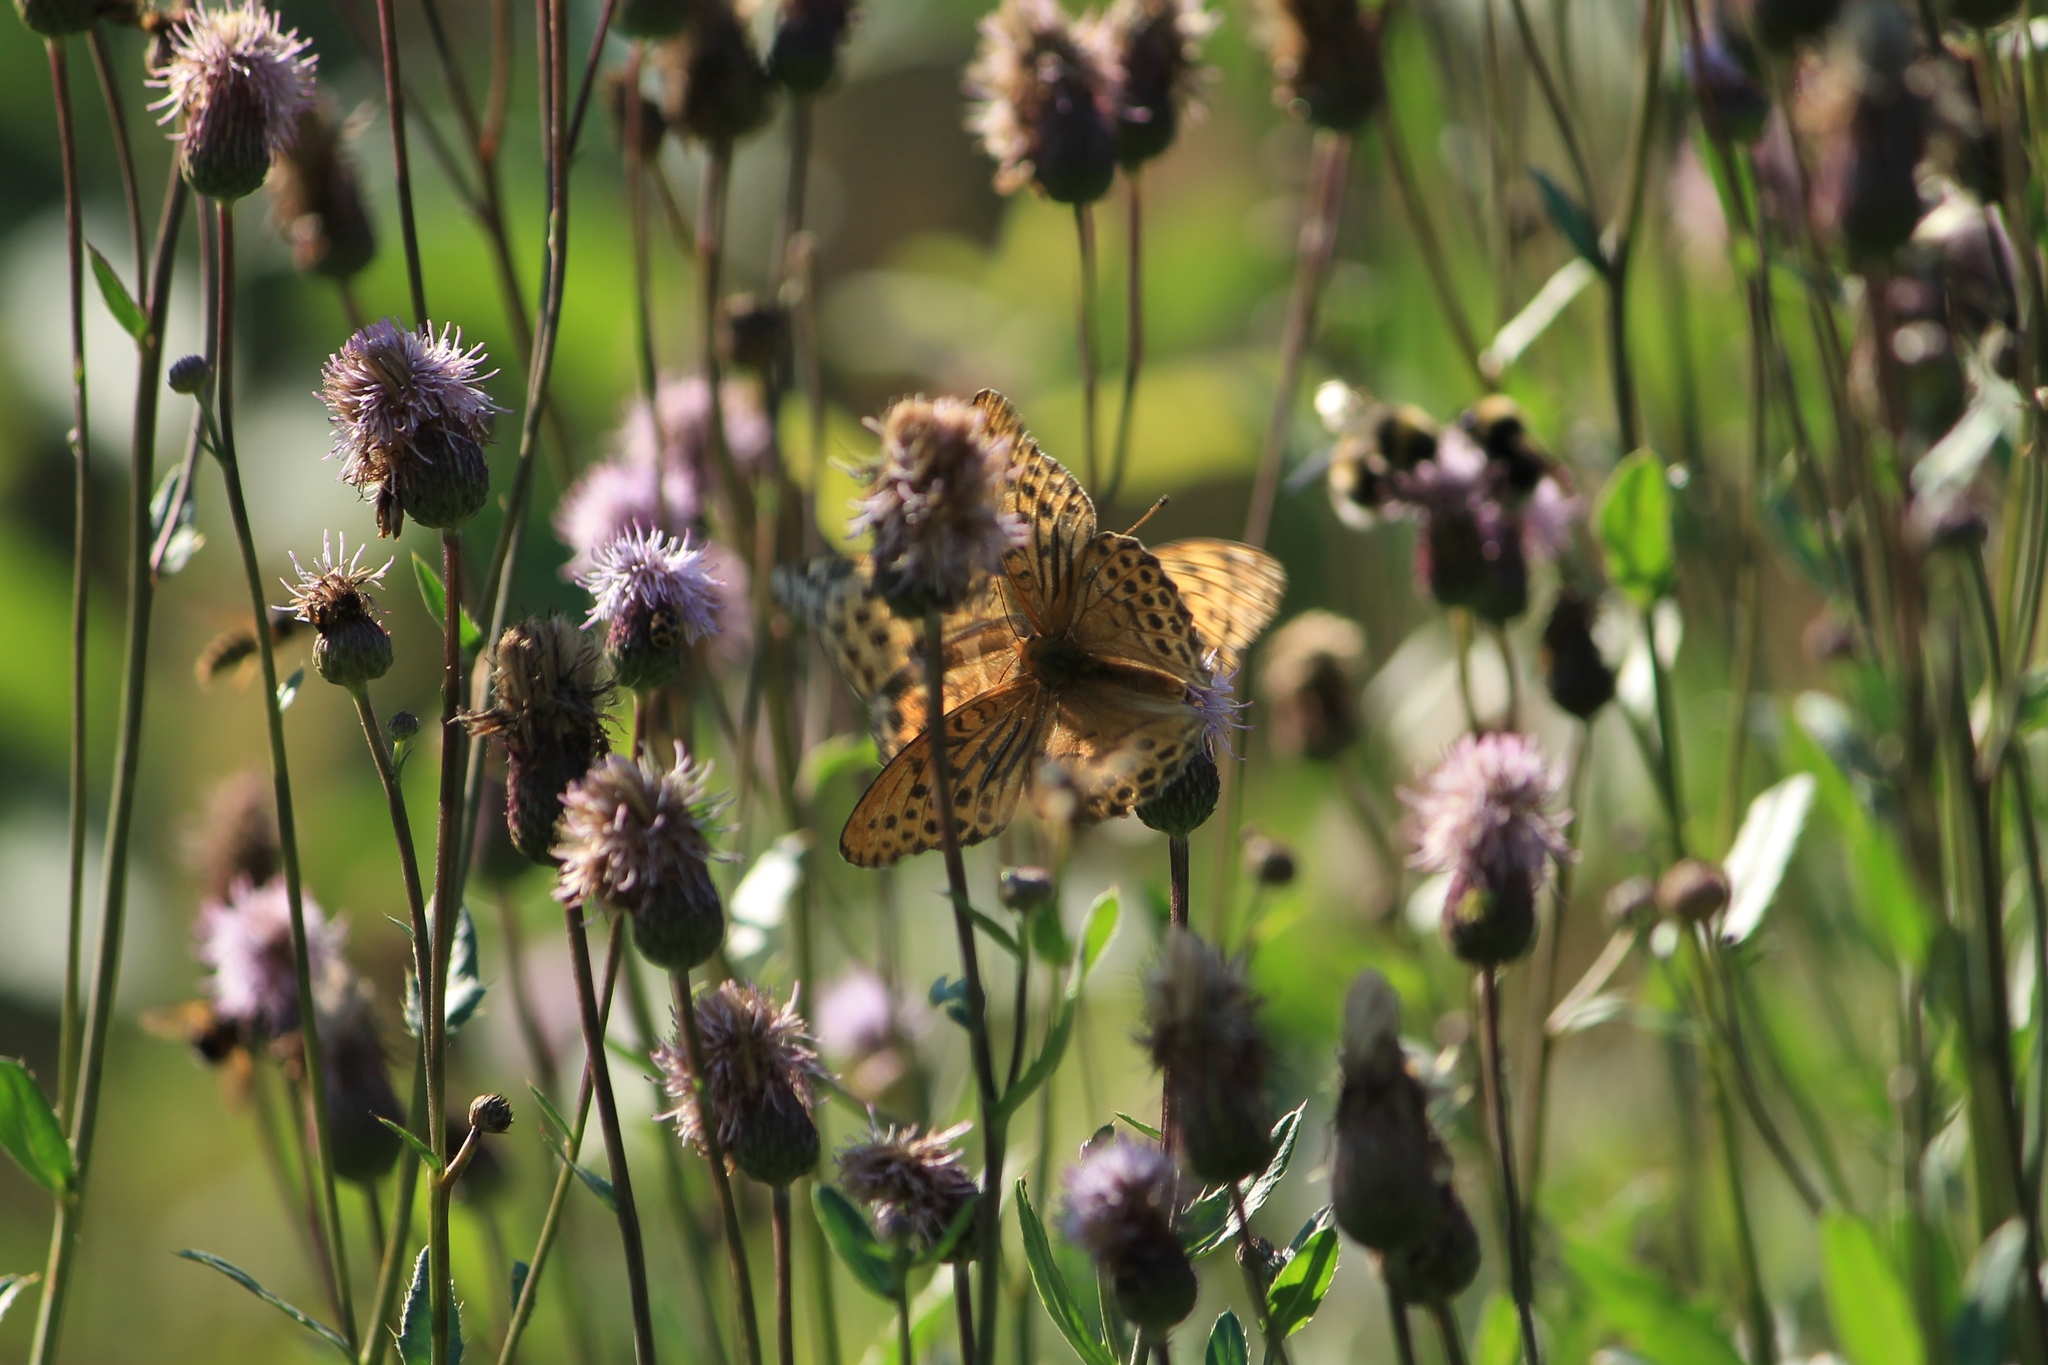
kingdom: Animalia
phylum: Arthropoda
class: Insecta
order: Lepidoptera
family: Nymphalidae
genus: Argynnis
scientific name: Argynnis paphia
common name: Silver-washed fritillary
